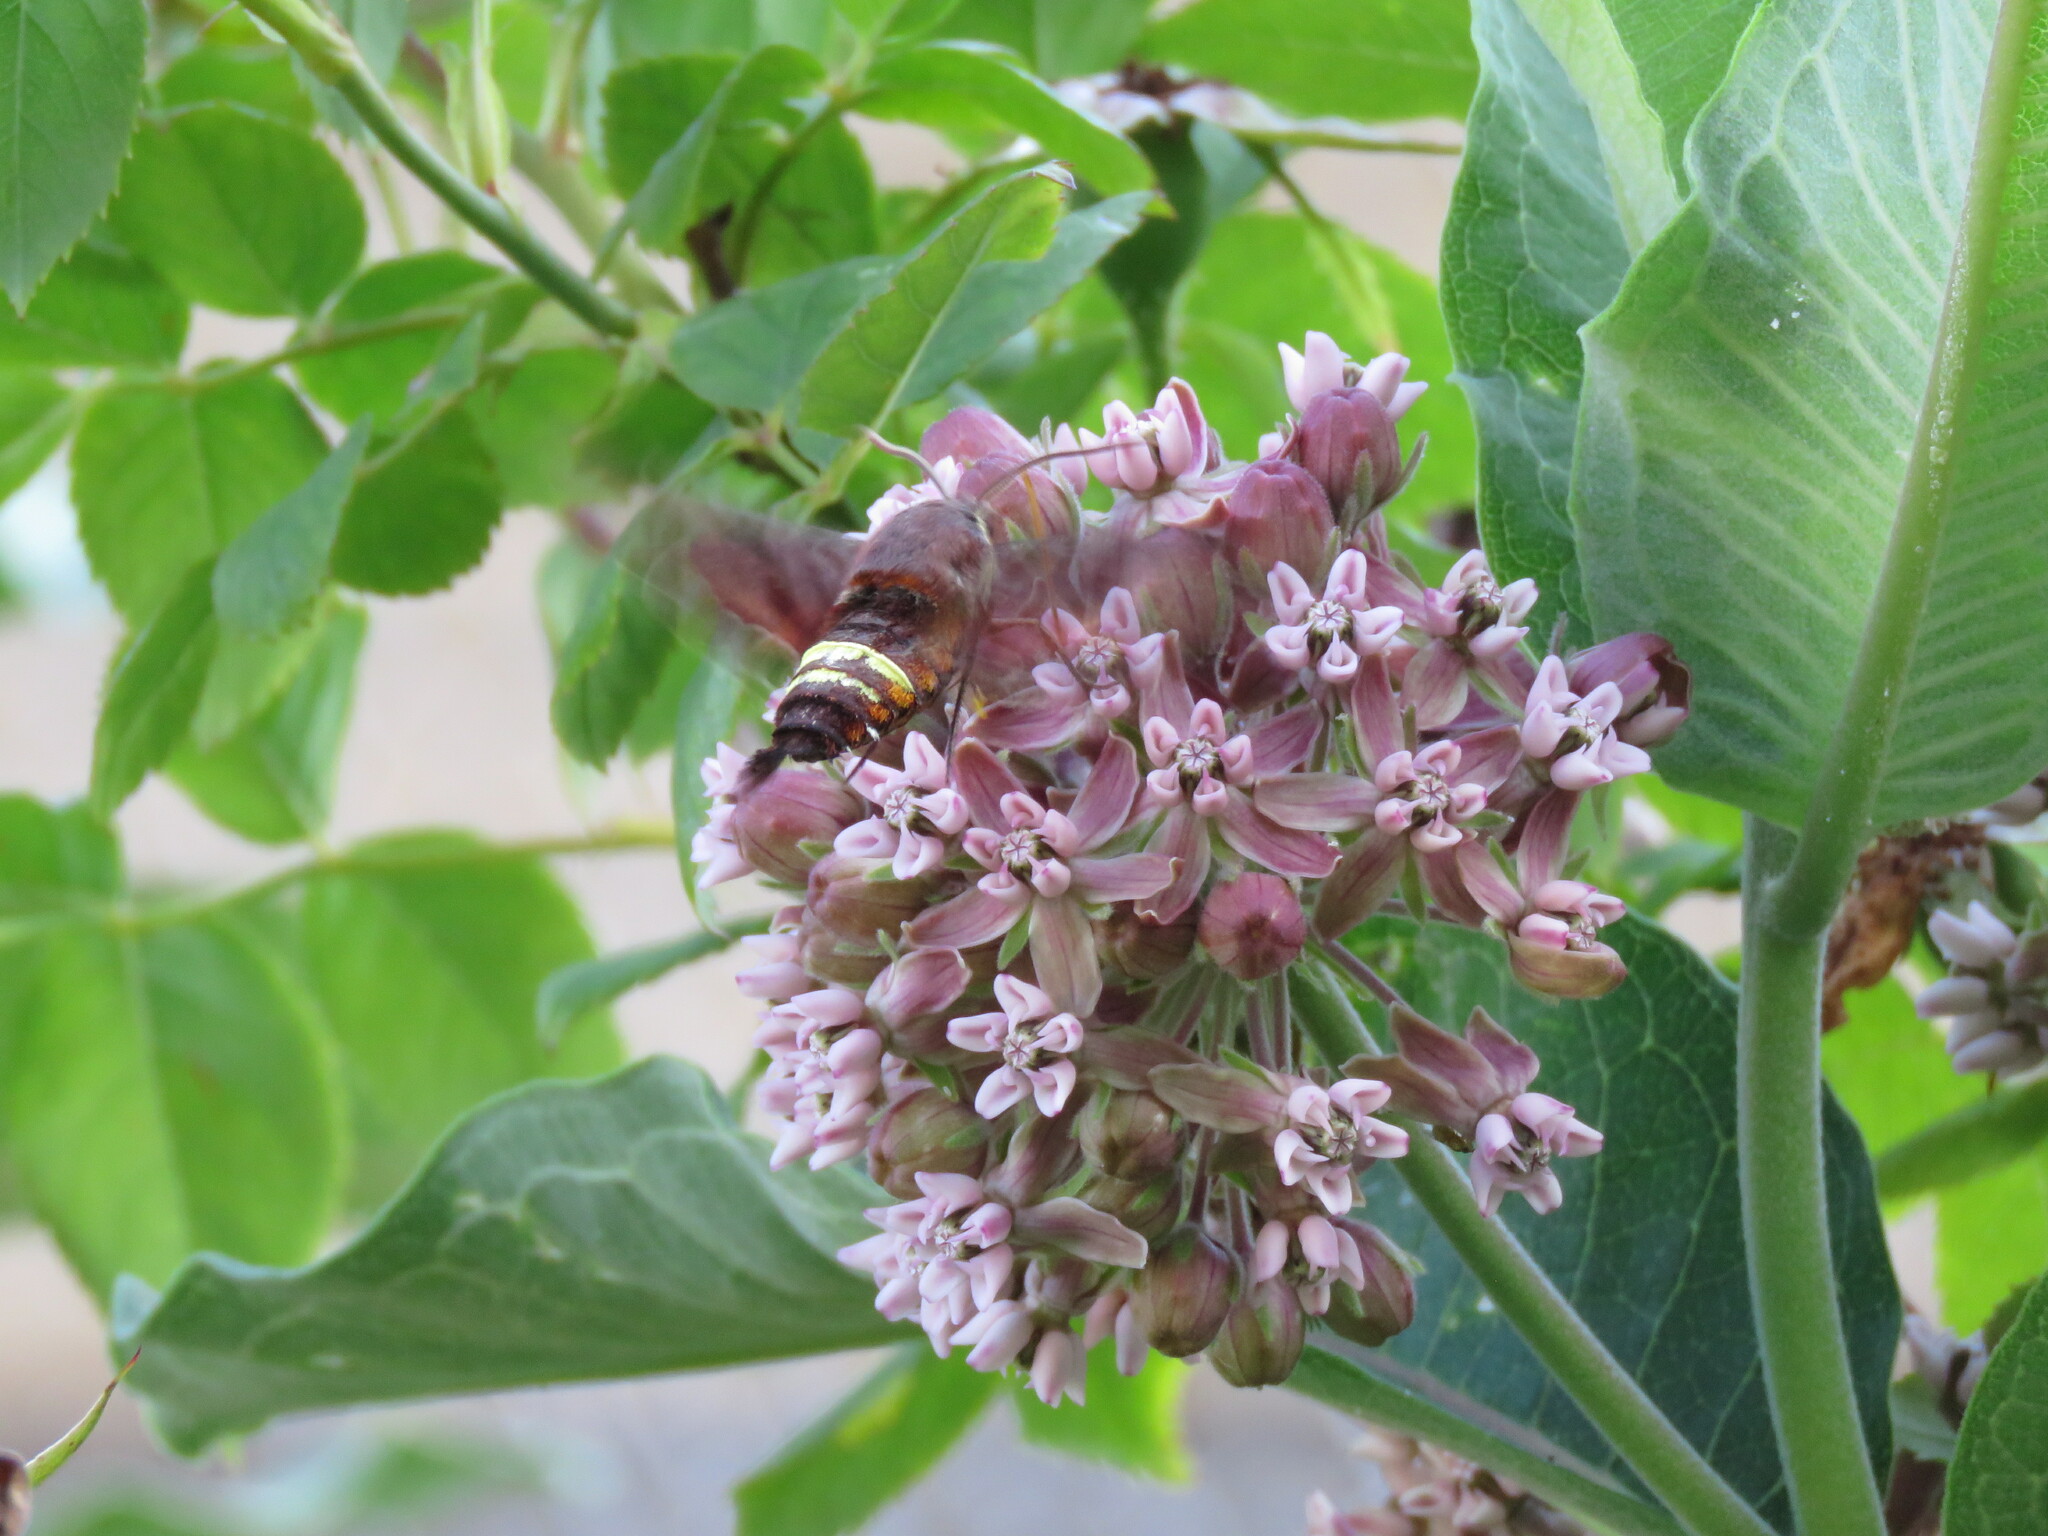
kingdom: Animalia
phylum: Arthropoda
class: Insecta
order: Lepidoptera
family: Sphingidae
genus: Amphion
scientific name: Amphion floridensis
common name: Nessus sphinx
